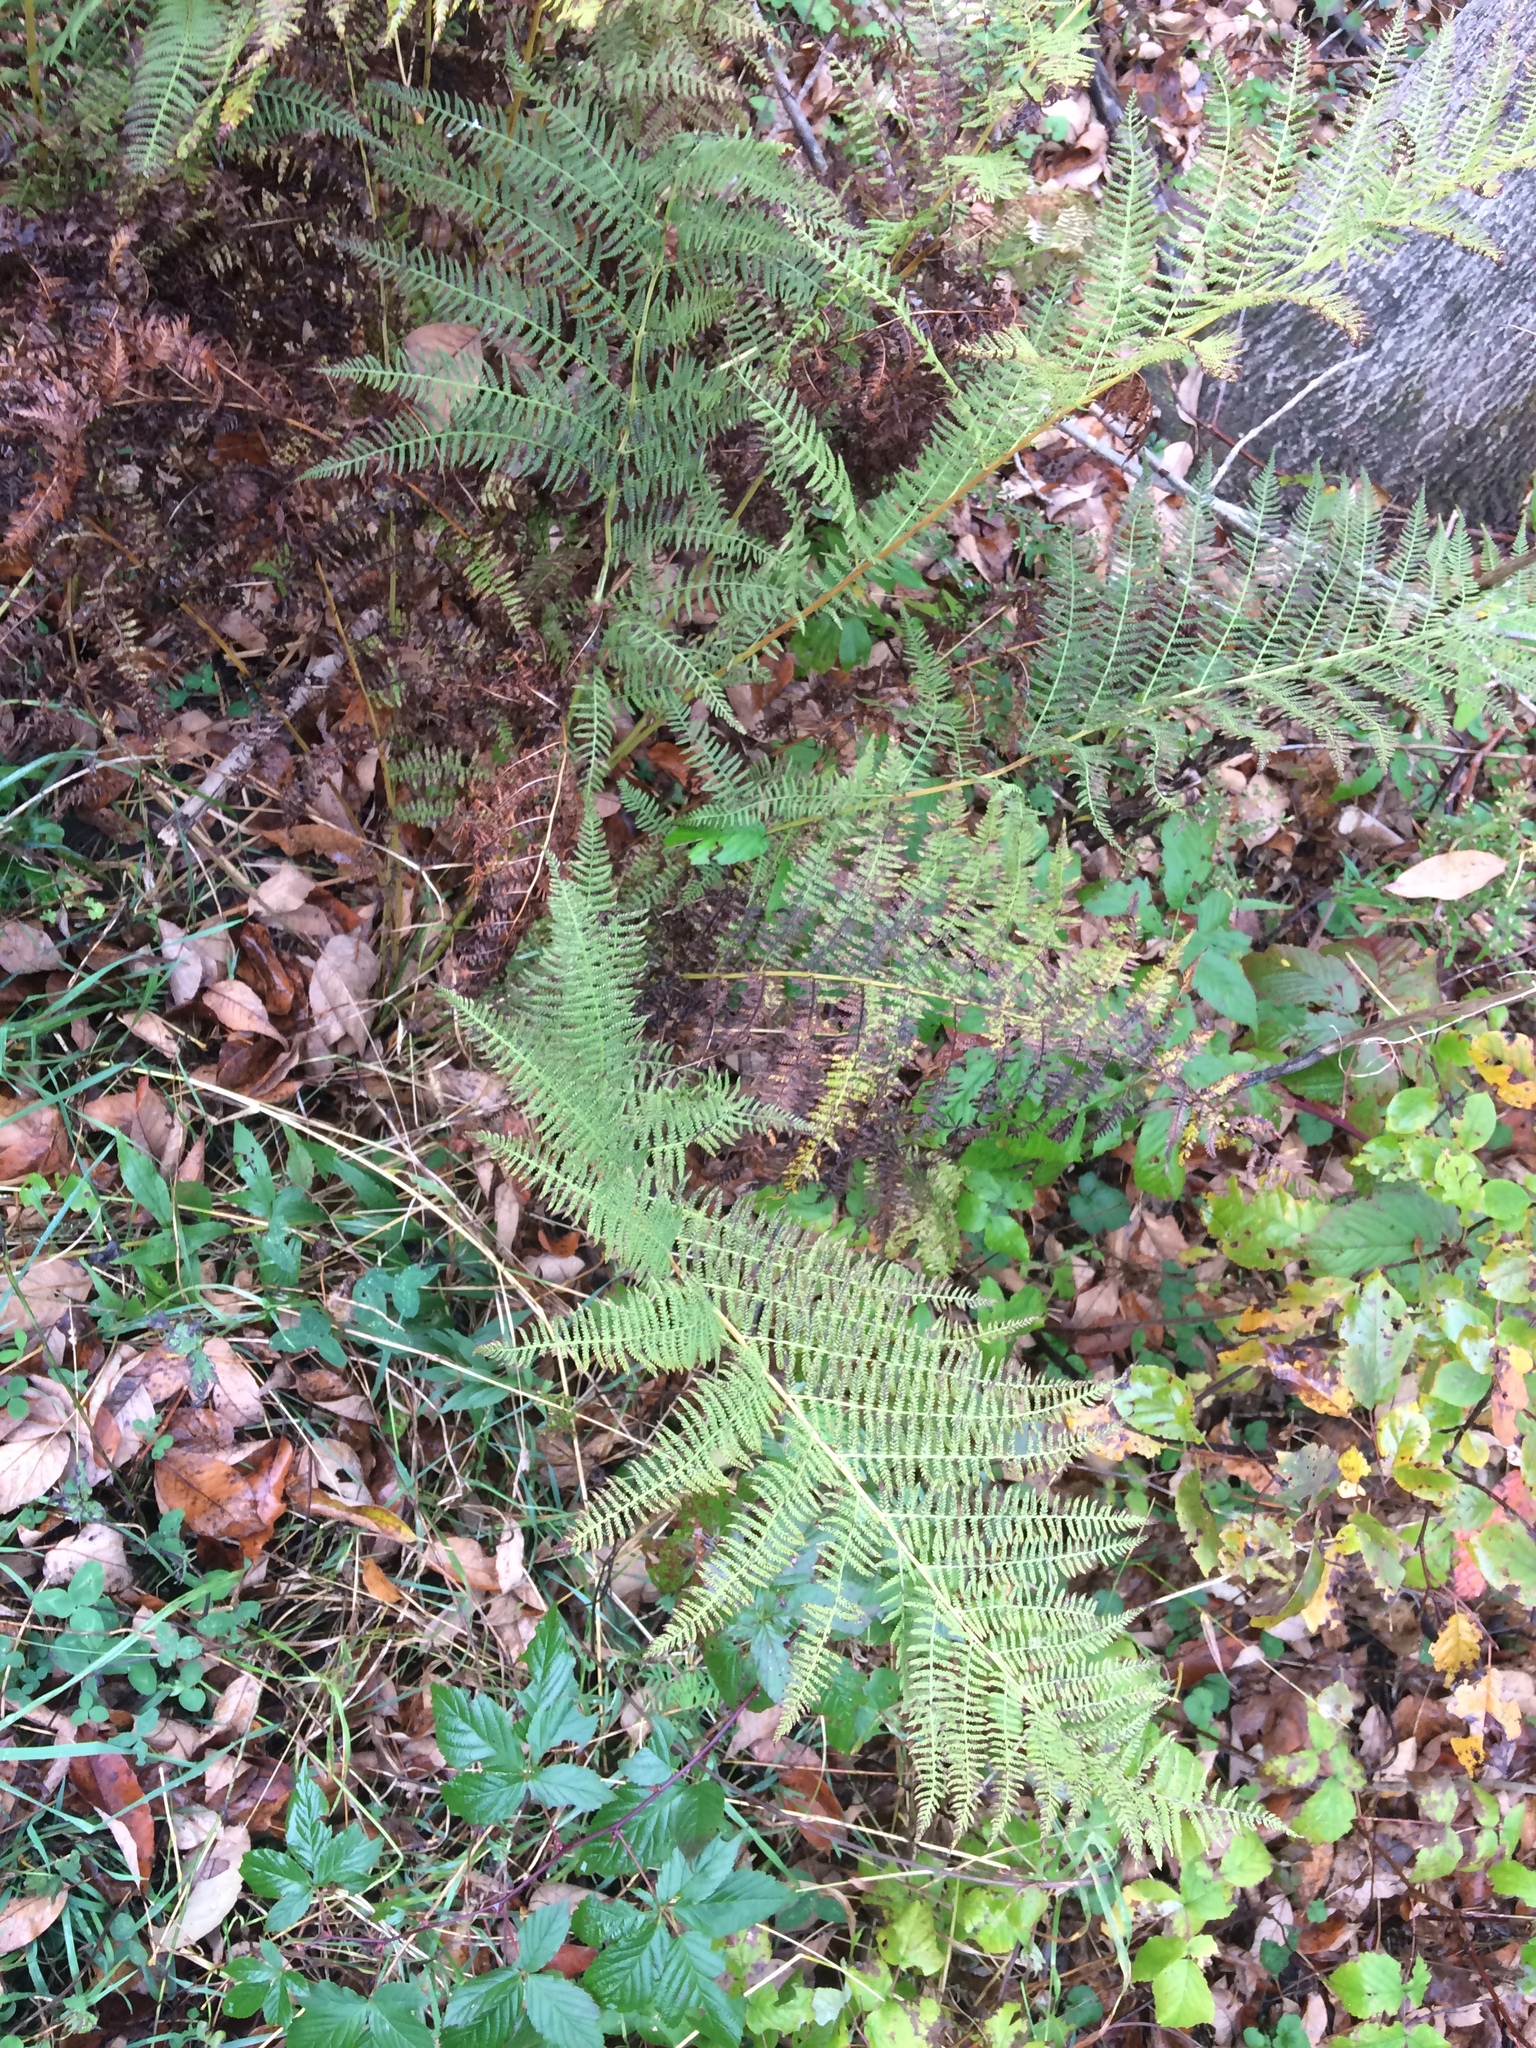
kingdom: Plantae
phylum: Tracheophyta
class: Polypodiopsida
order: Polypodiales
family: Athyriaceae
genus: Athyrium
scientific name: Athyrium angustum
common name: Northern lady fern
